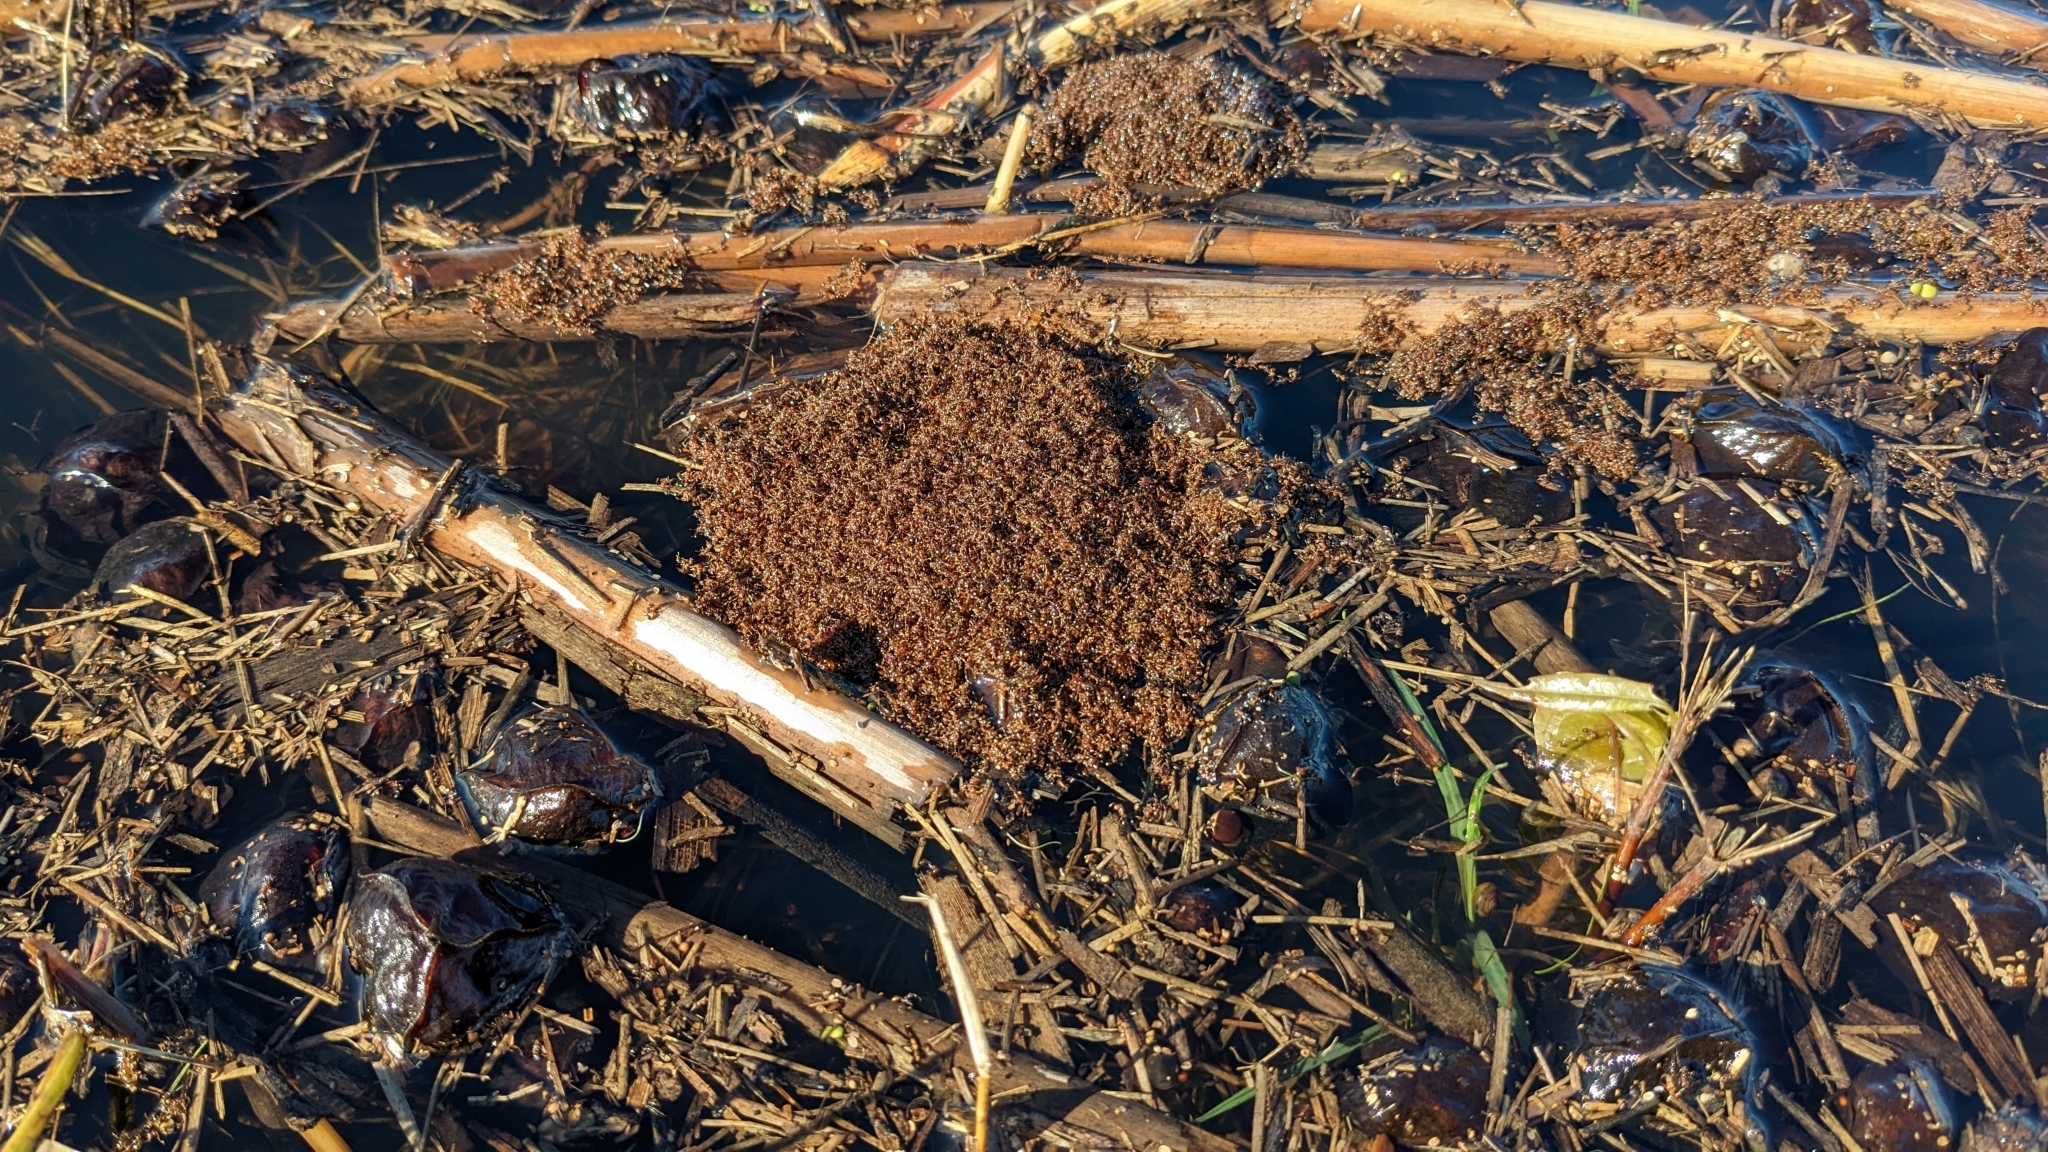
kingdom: Animalia
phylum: Arthropoda
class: Insecta
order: Hymenoptera
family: Formicidae
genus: Solenopsis
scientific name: Solenopsis invicta
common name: Red imported fire ant
